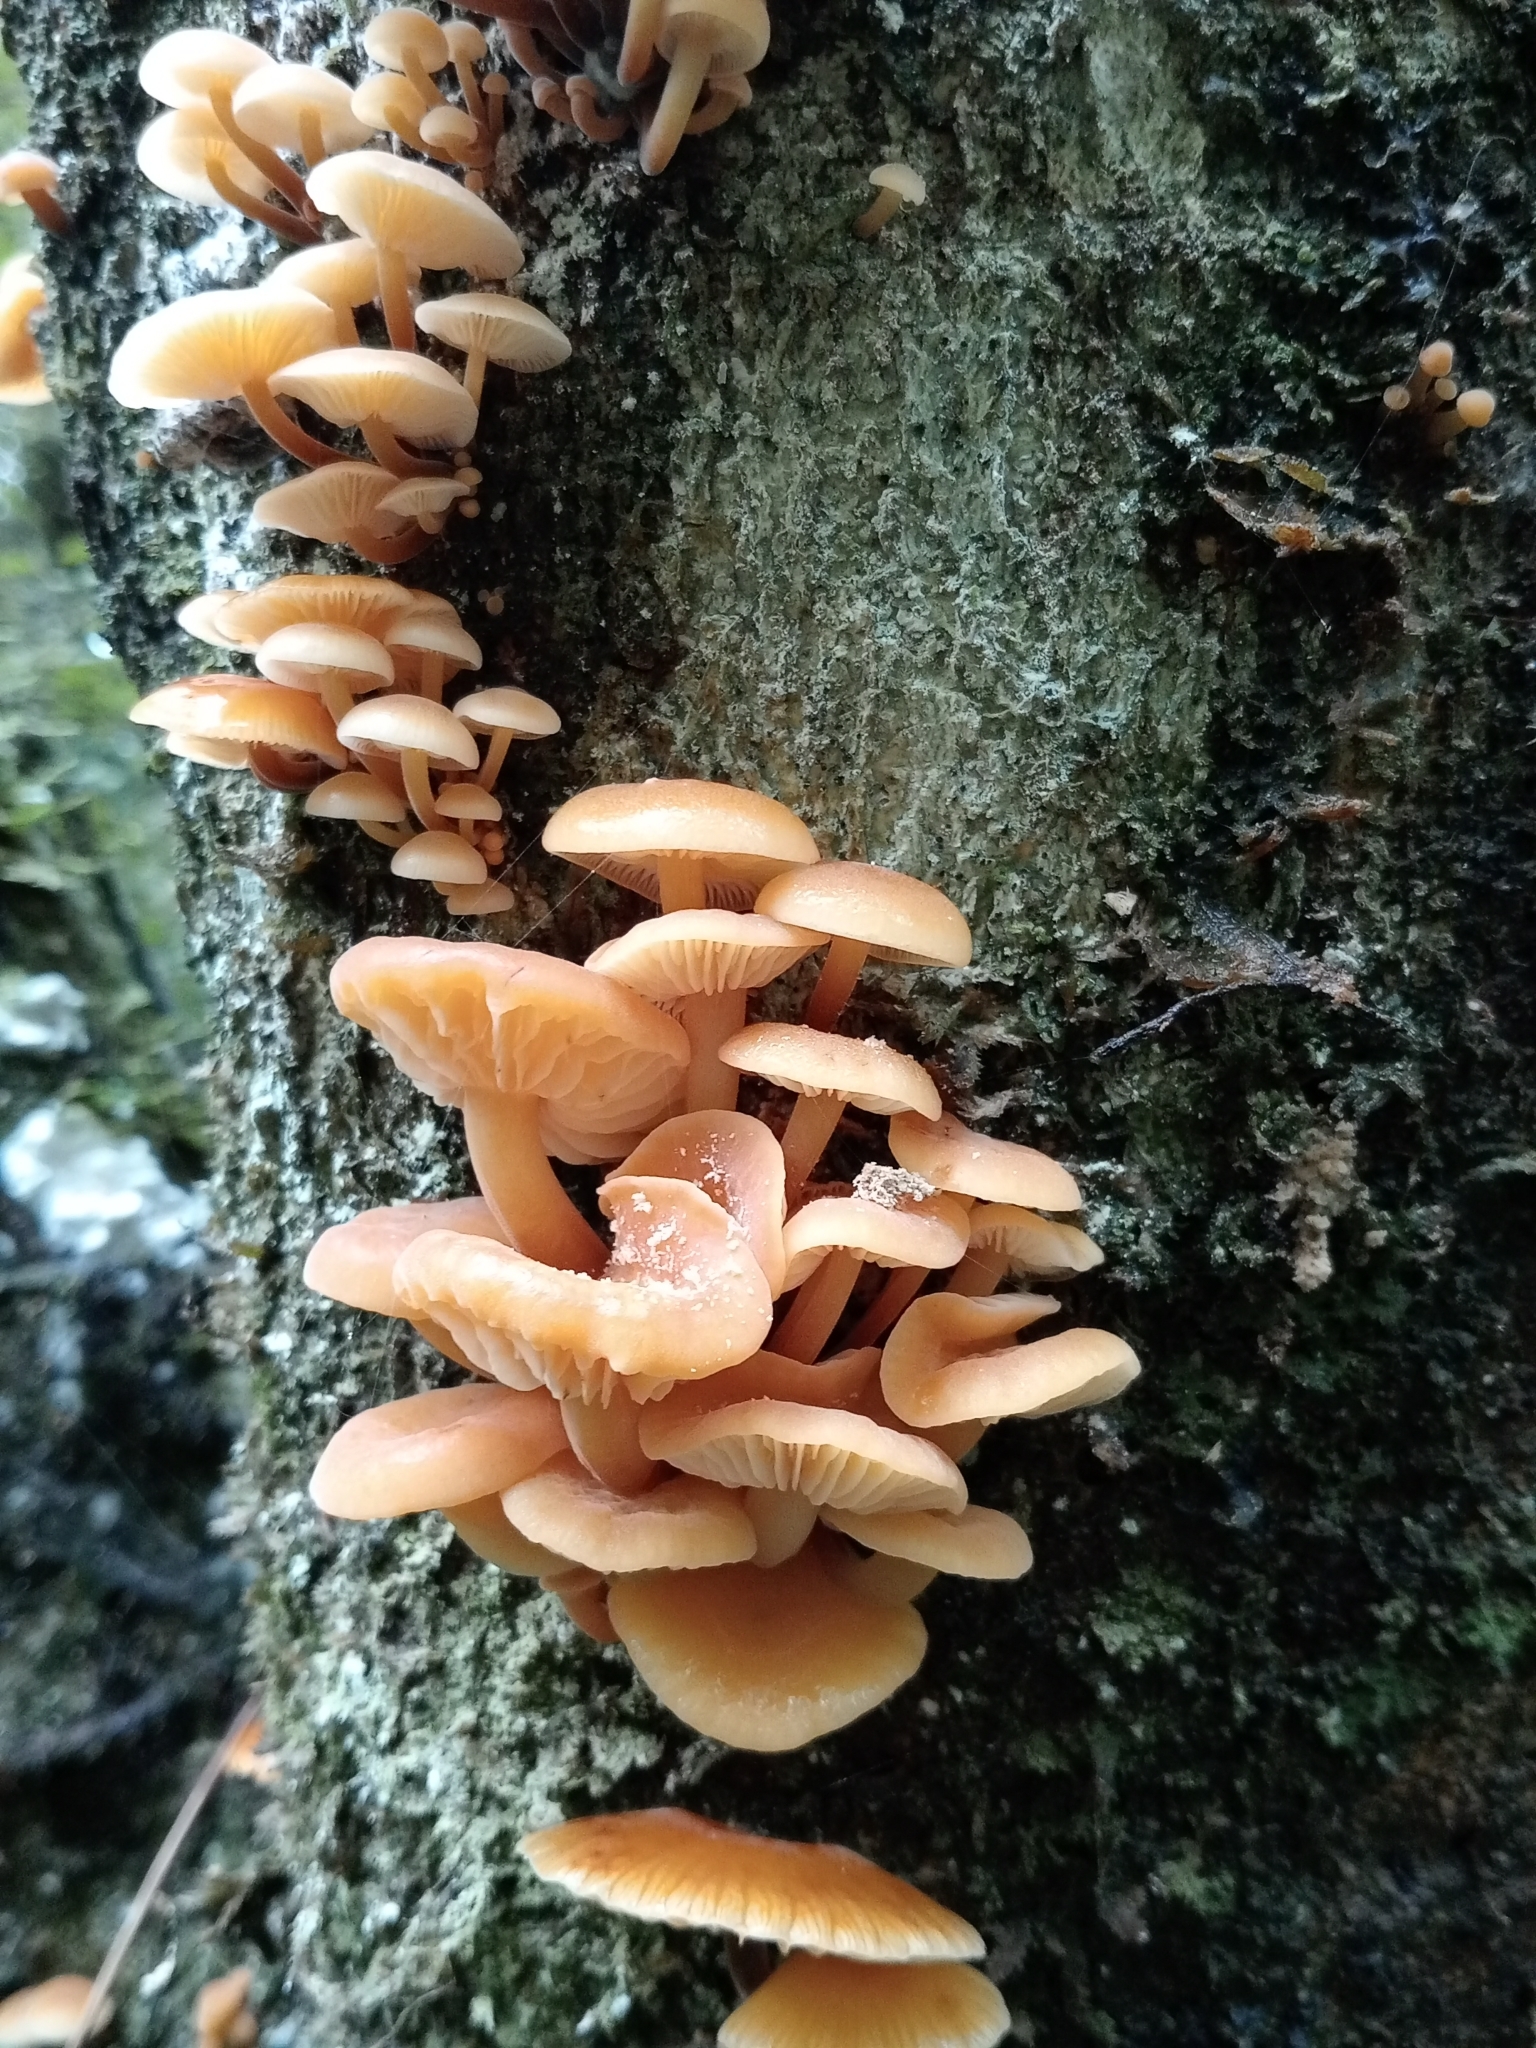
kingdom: Fungi
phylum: Basidiomycota
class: Agaricomycetes
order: Agaricales
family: Physalacriaceae
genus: Flammulina
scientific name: Flammulina velutipes
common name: Velvet shank
